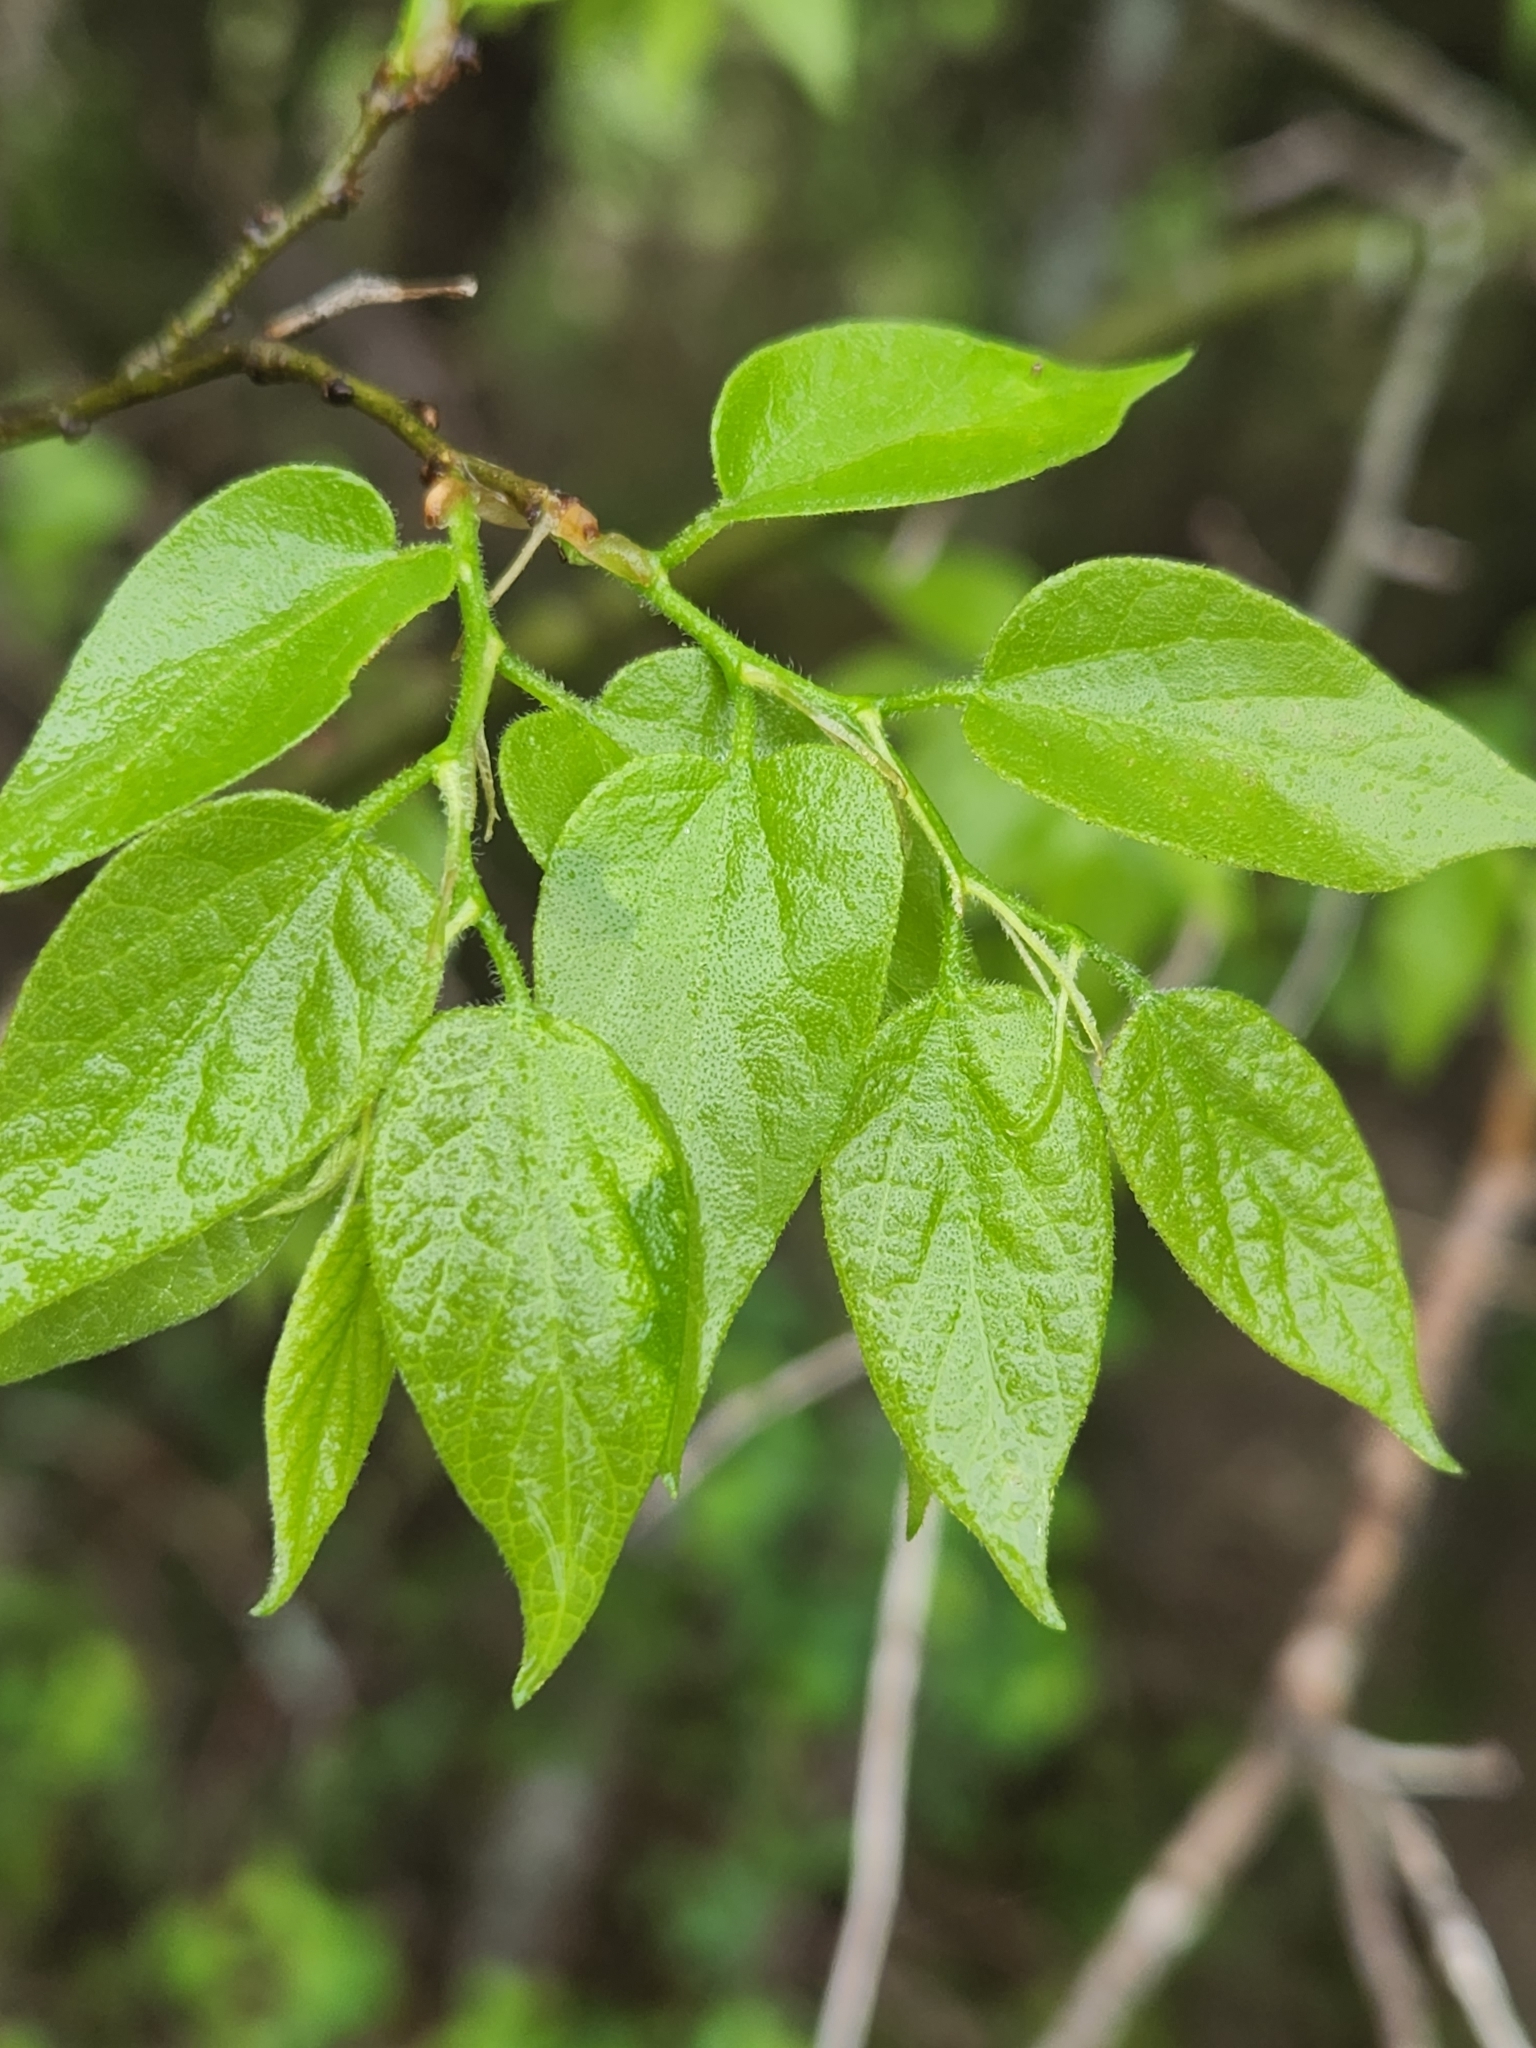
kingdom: Plantae
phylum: Tracheophyta
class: Magnoliopsida
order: Rosales
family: Cannabaceae
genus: Celtis
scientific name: Celtis laevigata
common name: Sugarberry
